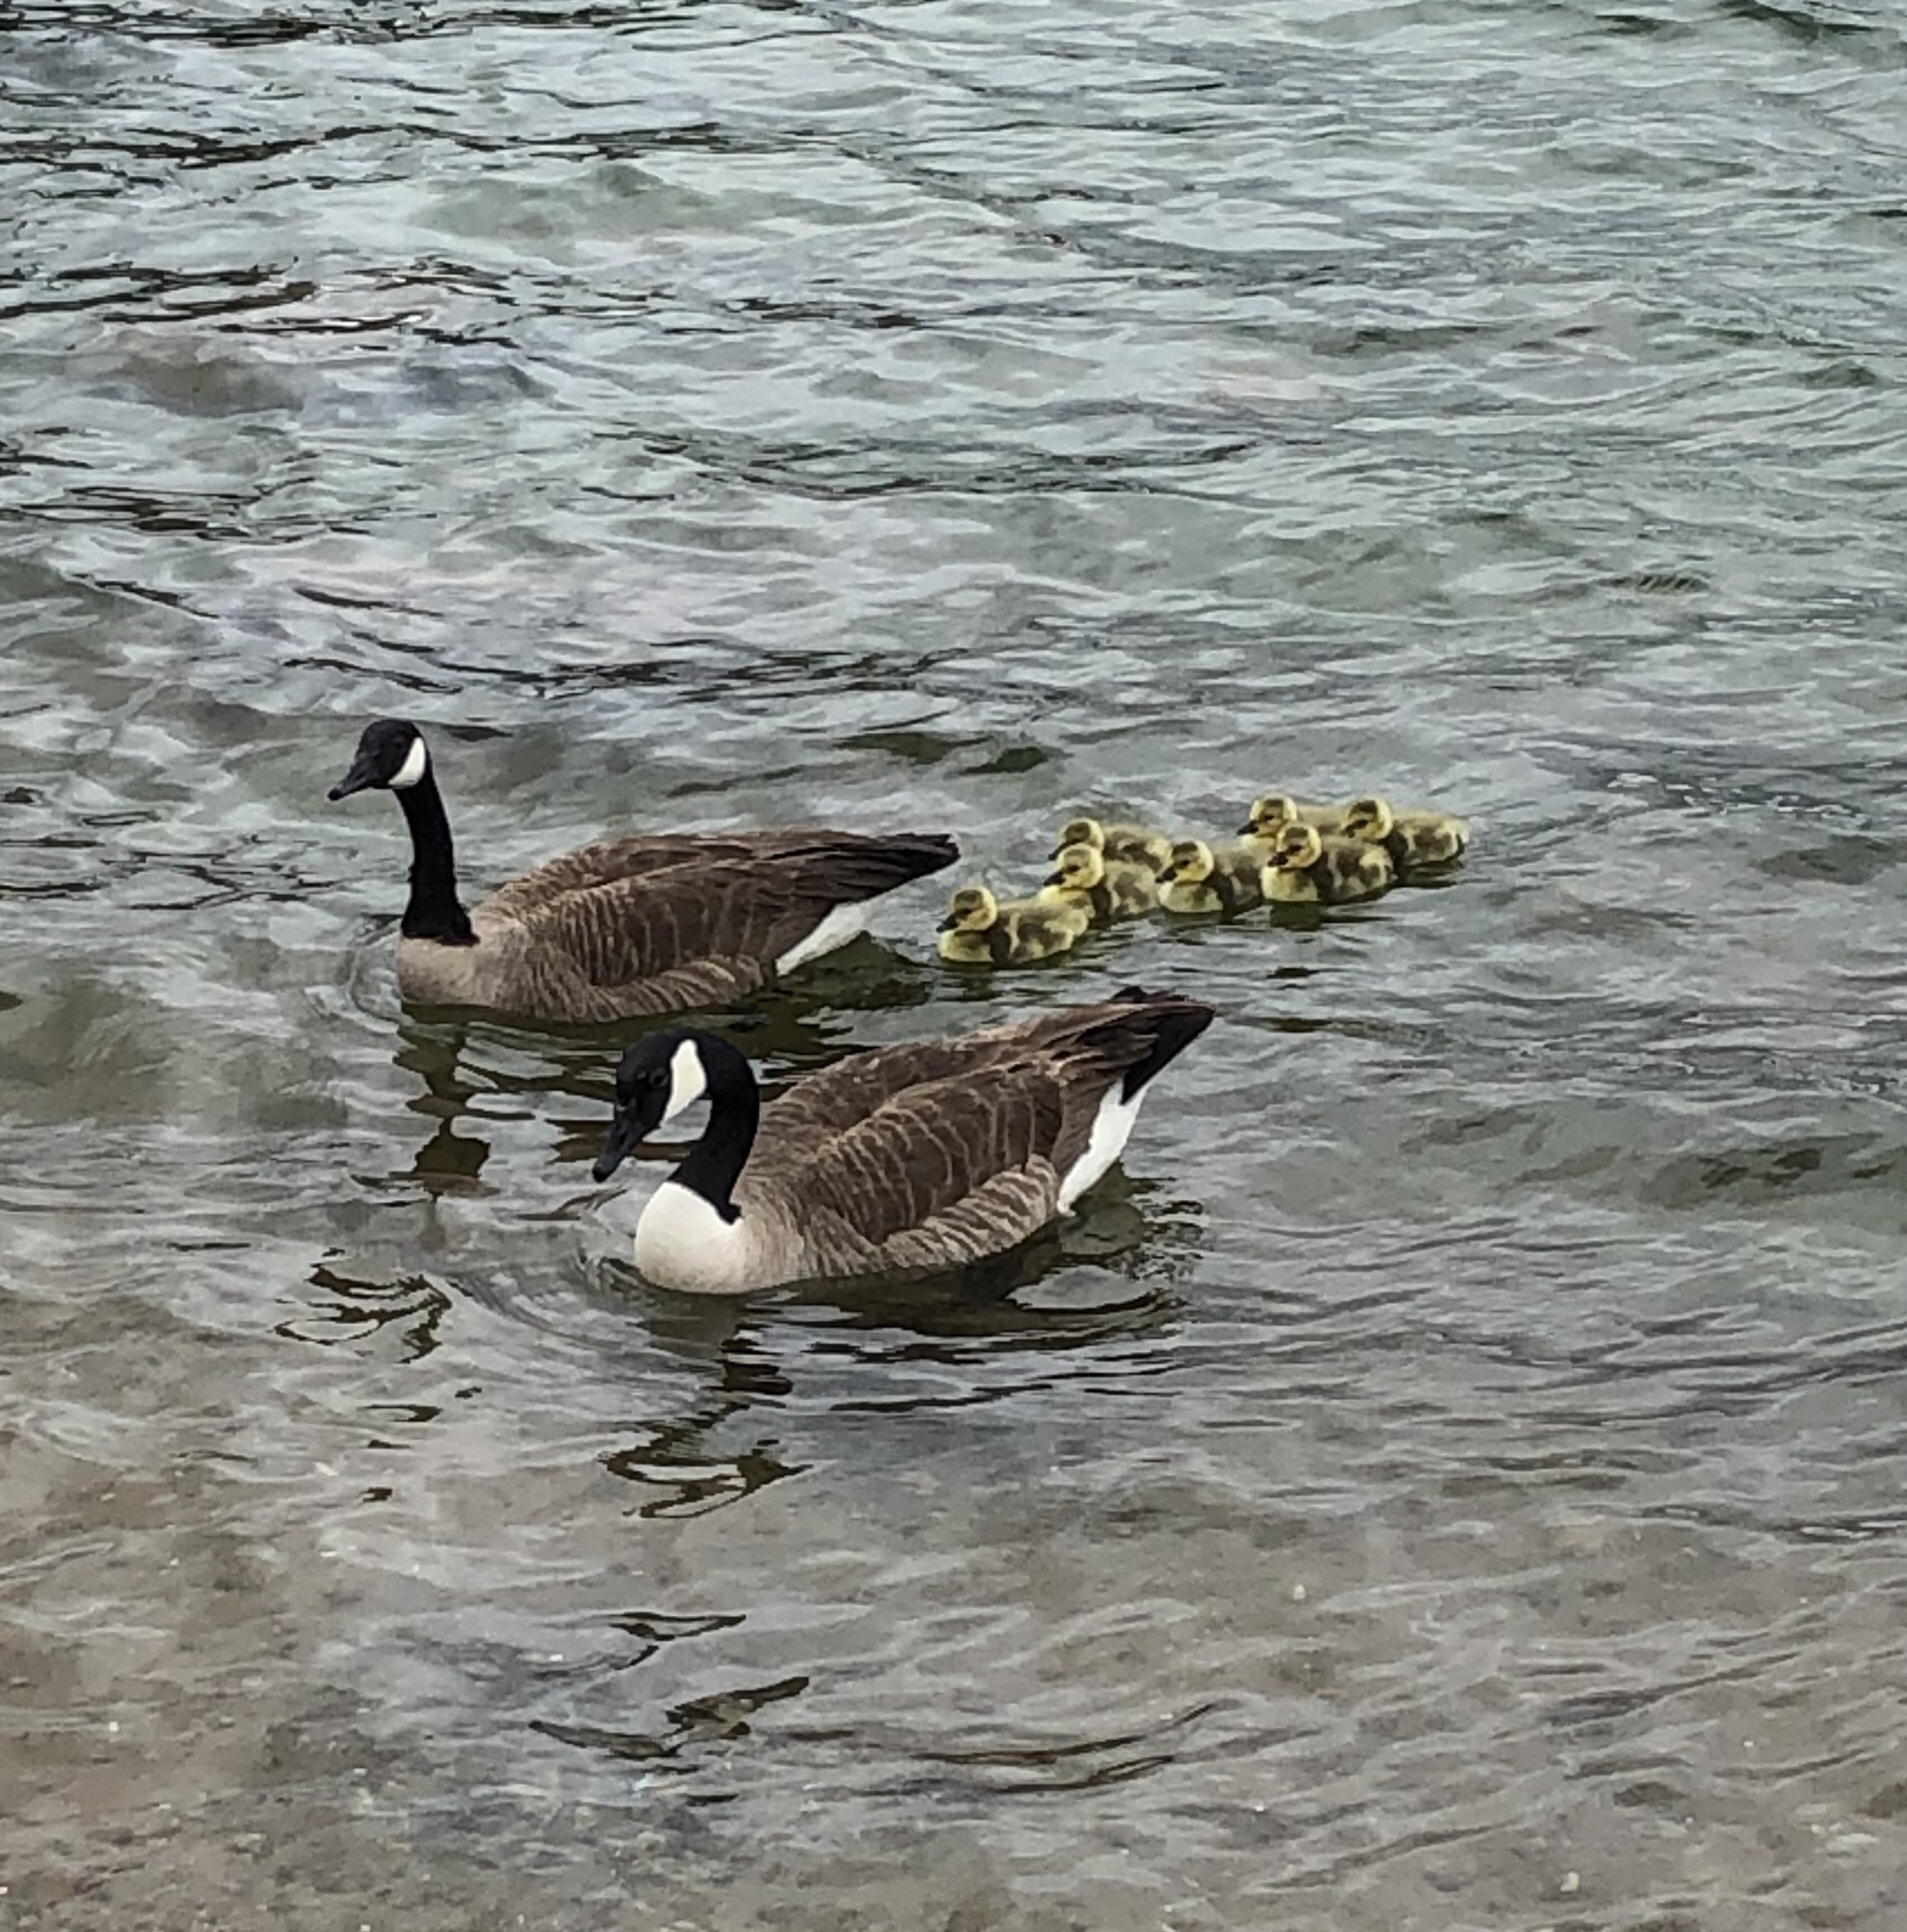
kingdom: Animalia
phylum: Chordata
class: Aves
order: Anseriformes
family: Anatidae
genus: Branta
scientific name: Branta canadensis
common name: Canada goose
